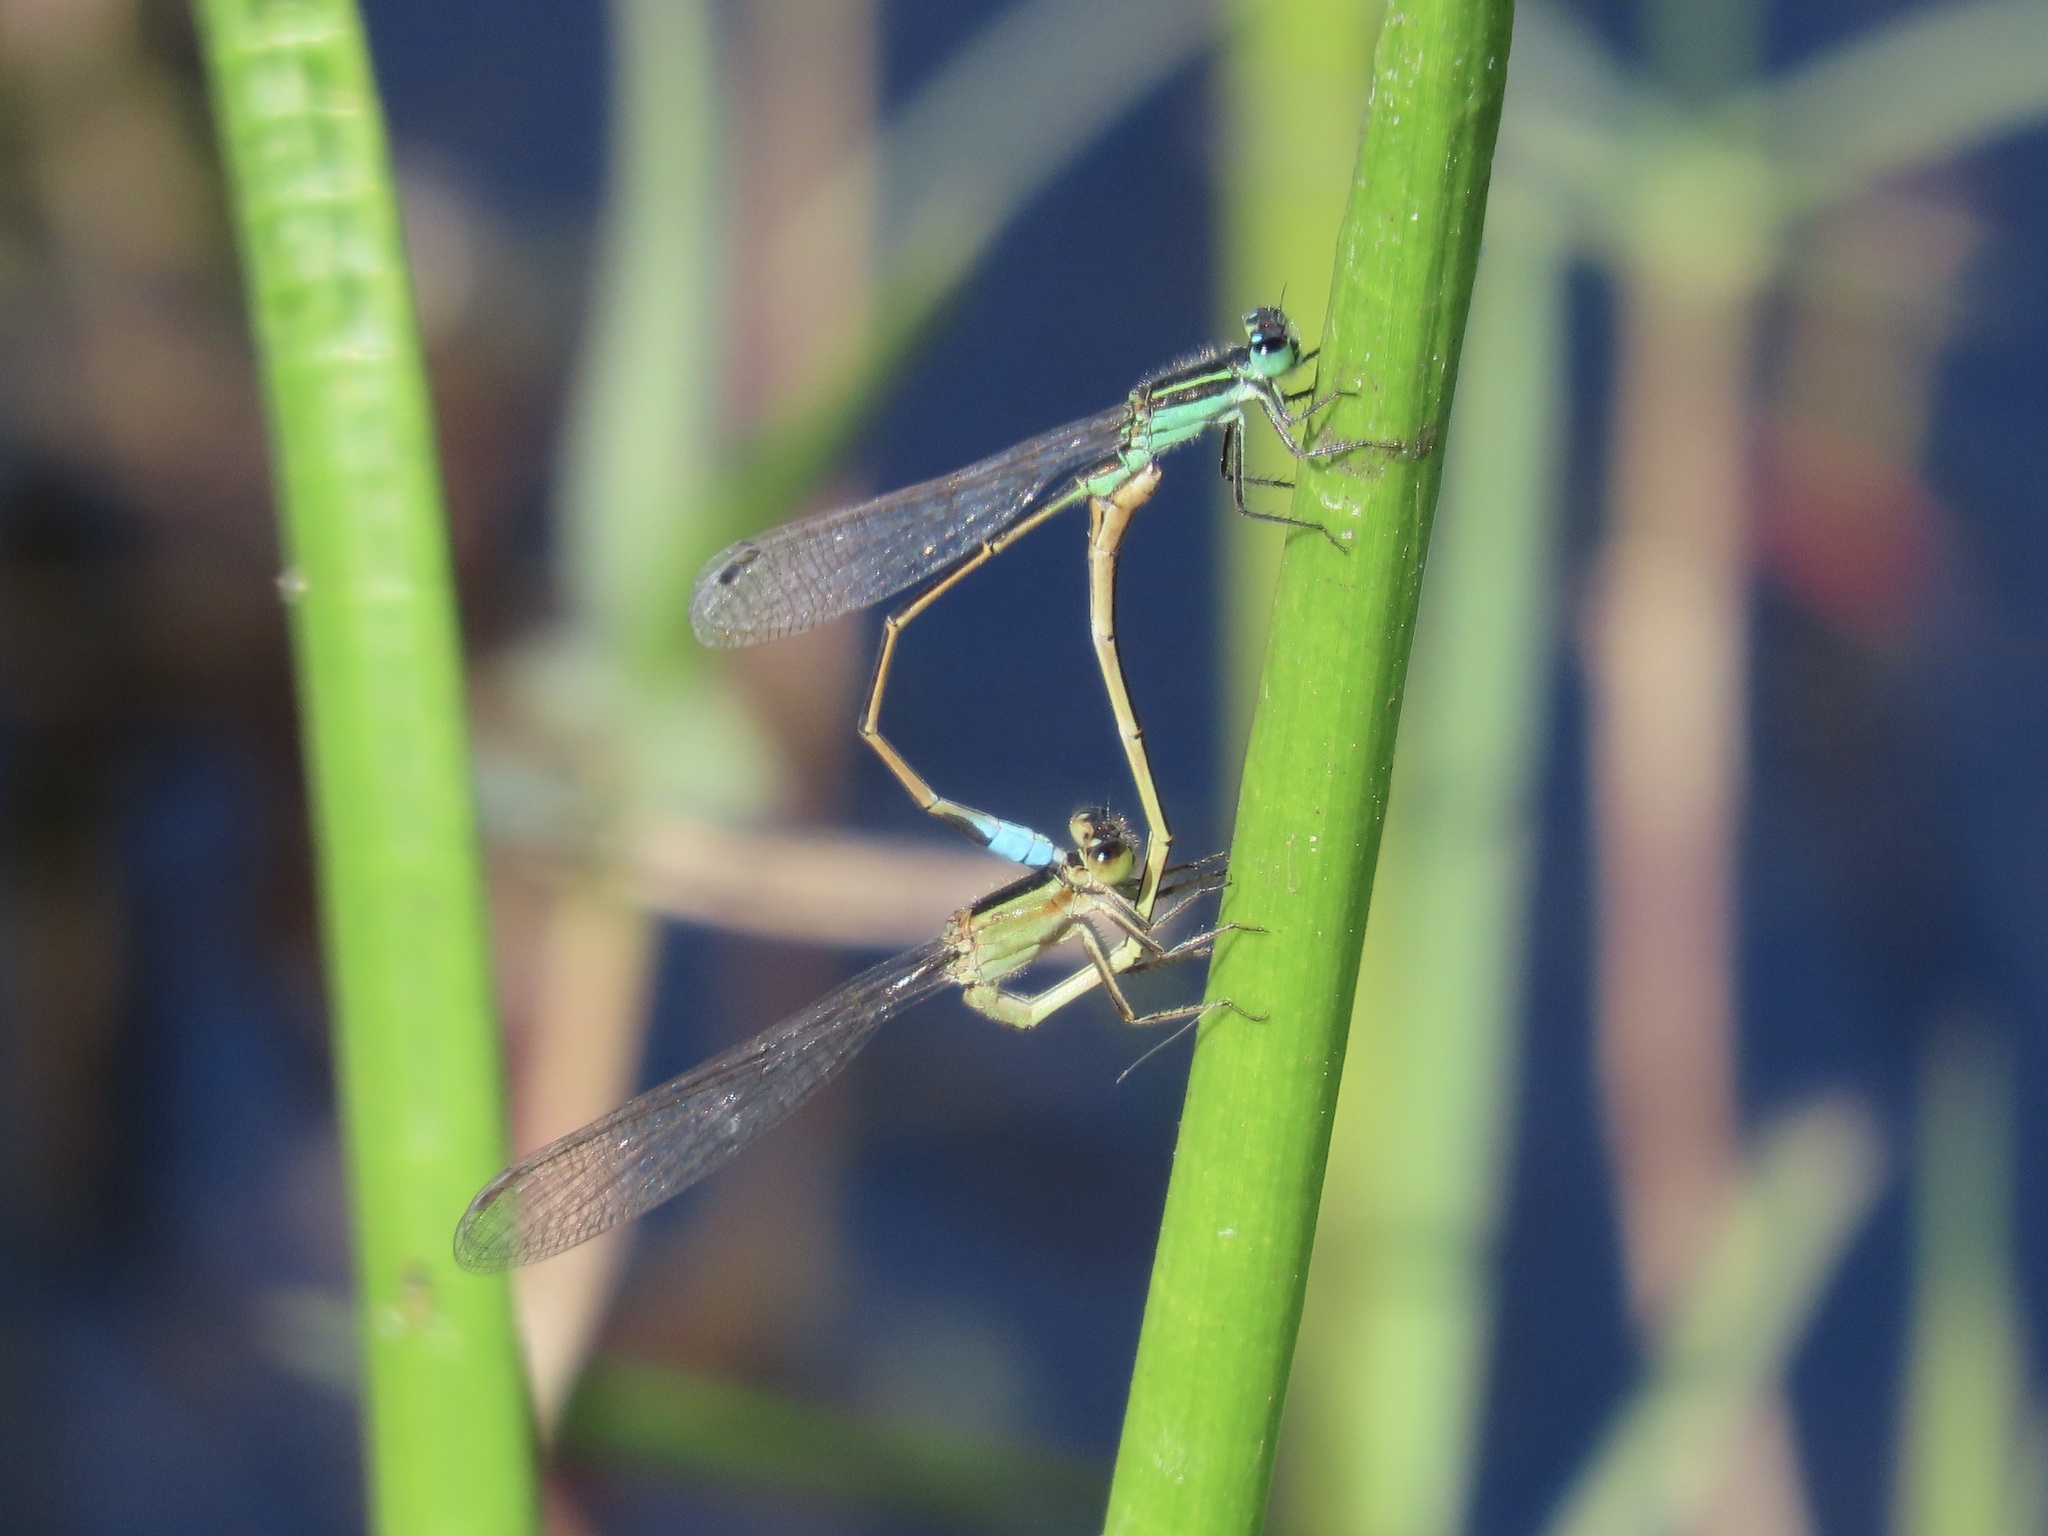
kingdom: Animalia
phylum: Arthropoda
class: Insecta
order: Odonata
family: Coenagrionidae
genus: Ischnura
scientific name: Ischnura ramburii
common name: Rambur's forktail
